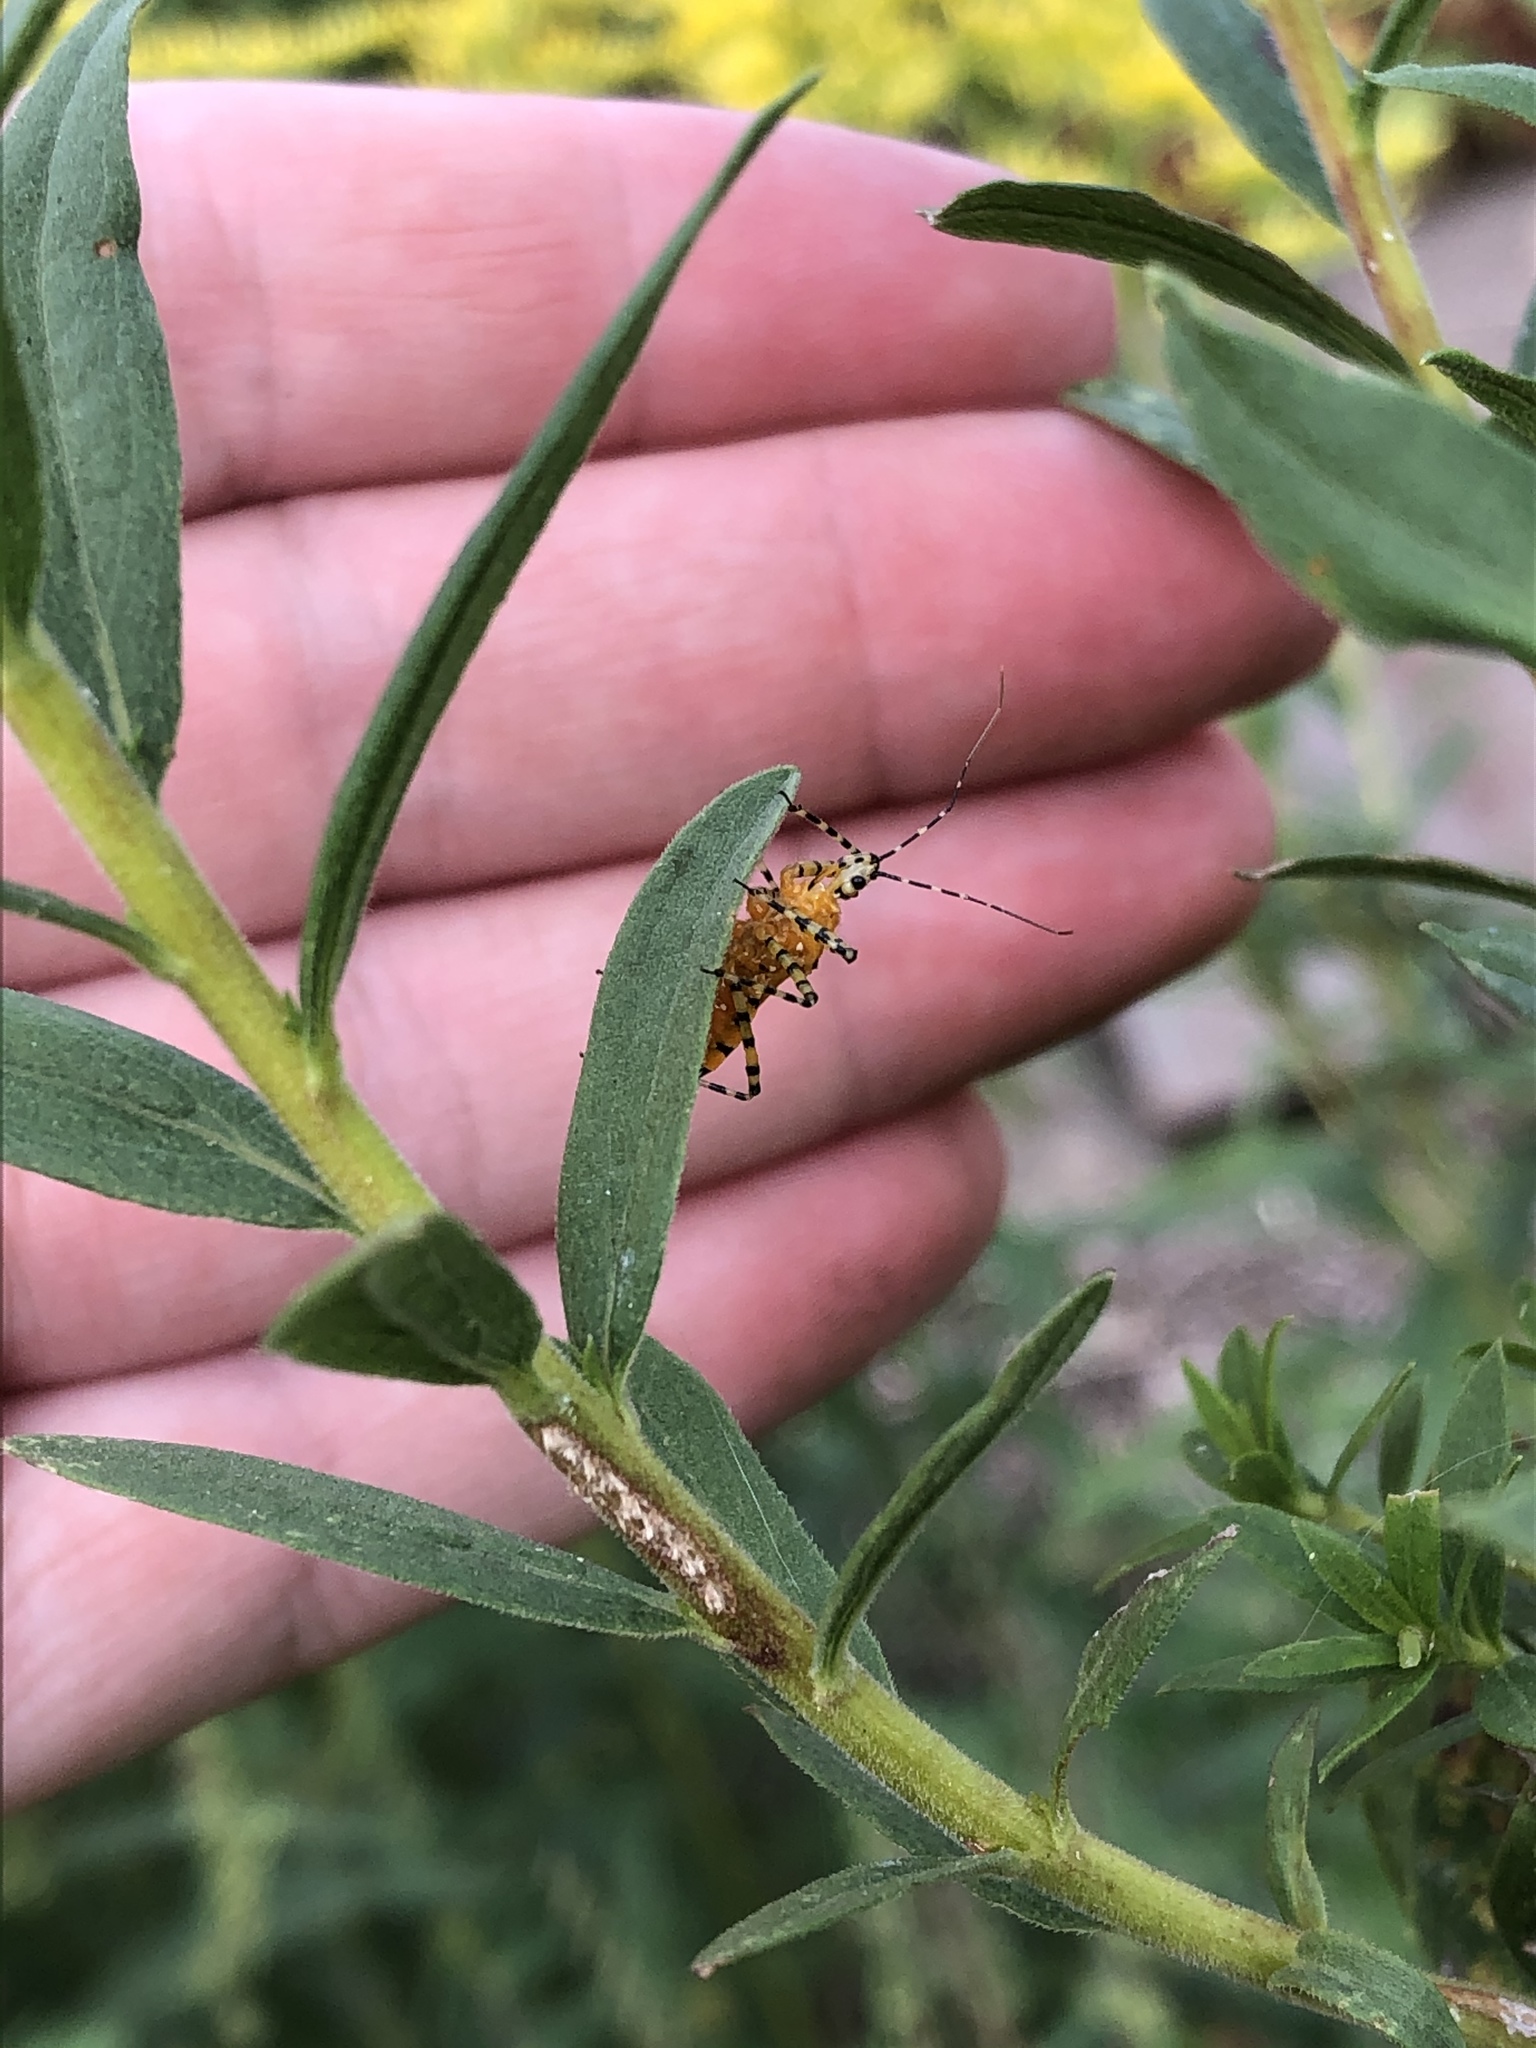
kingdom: Animalia
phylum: Arthropoda
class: Insecta
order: Hemiptera
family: Reduviidae
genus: Pselliopus
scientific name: Pselliopus barberi
